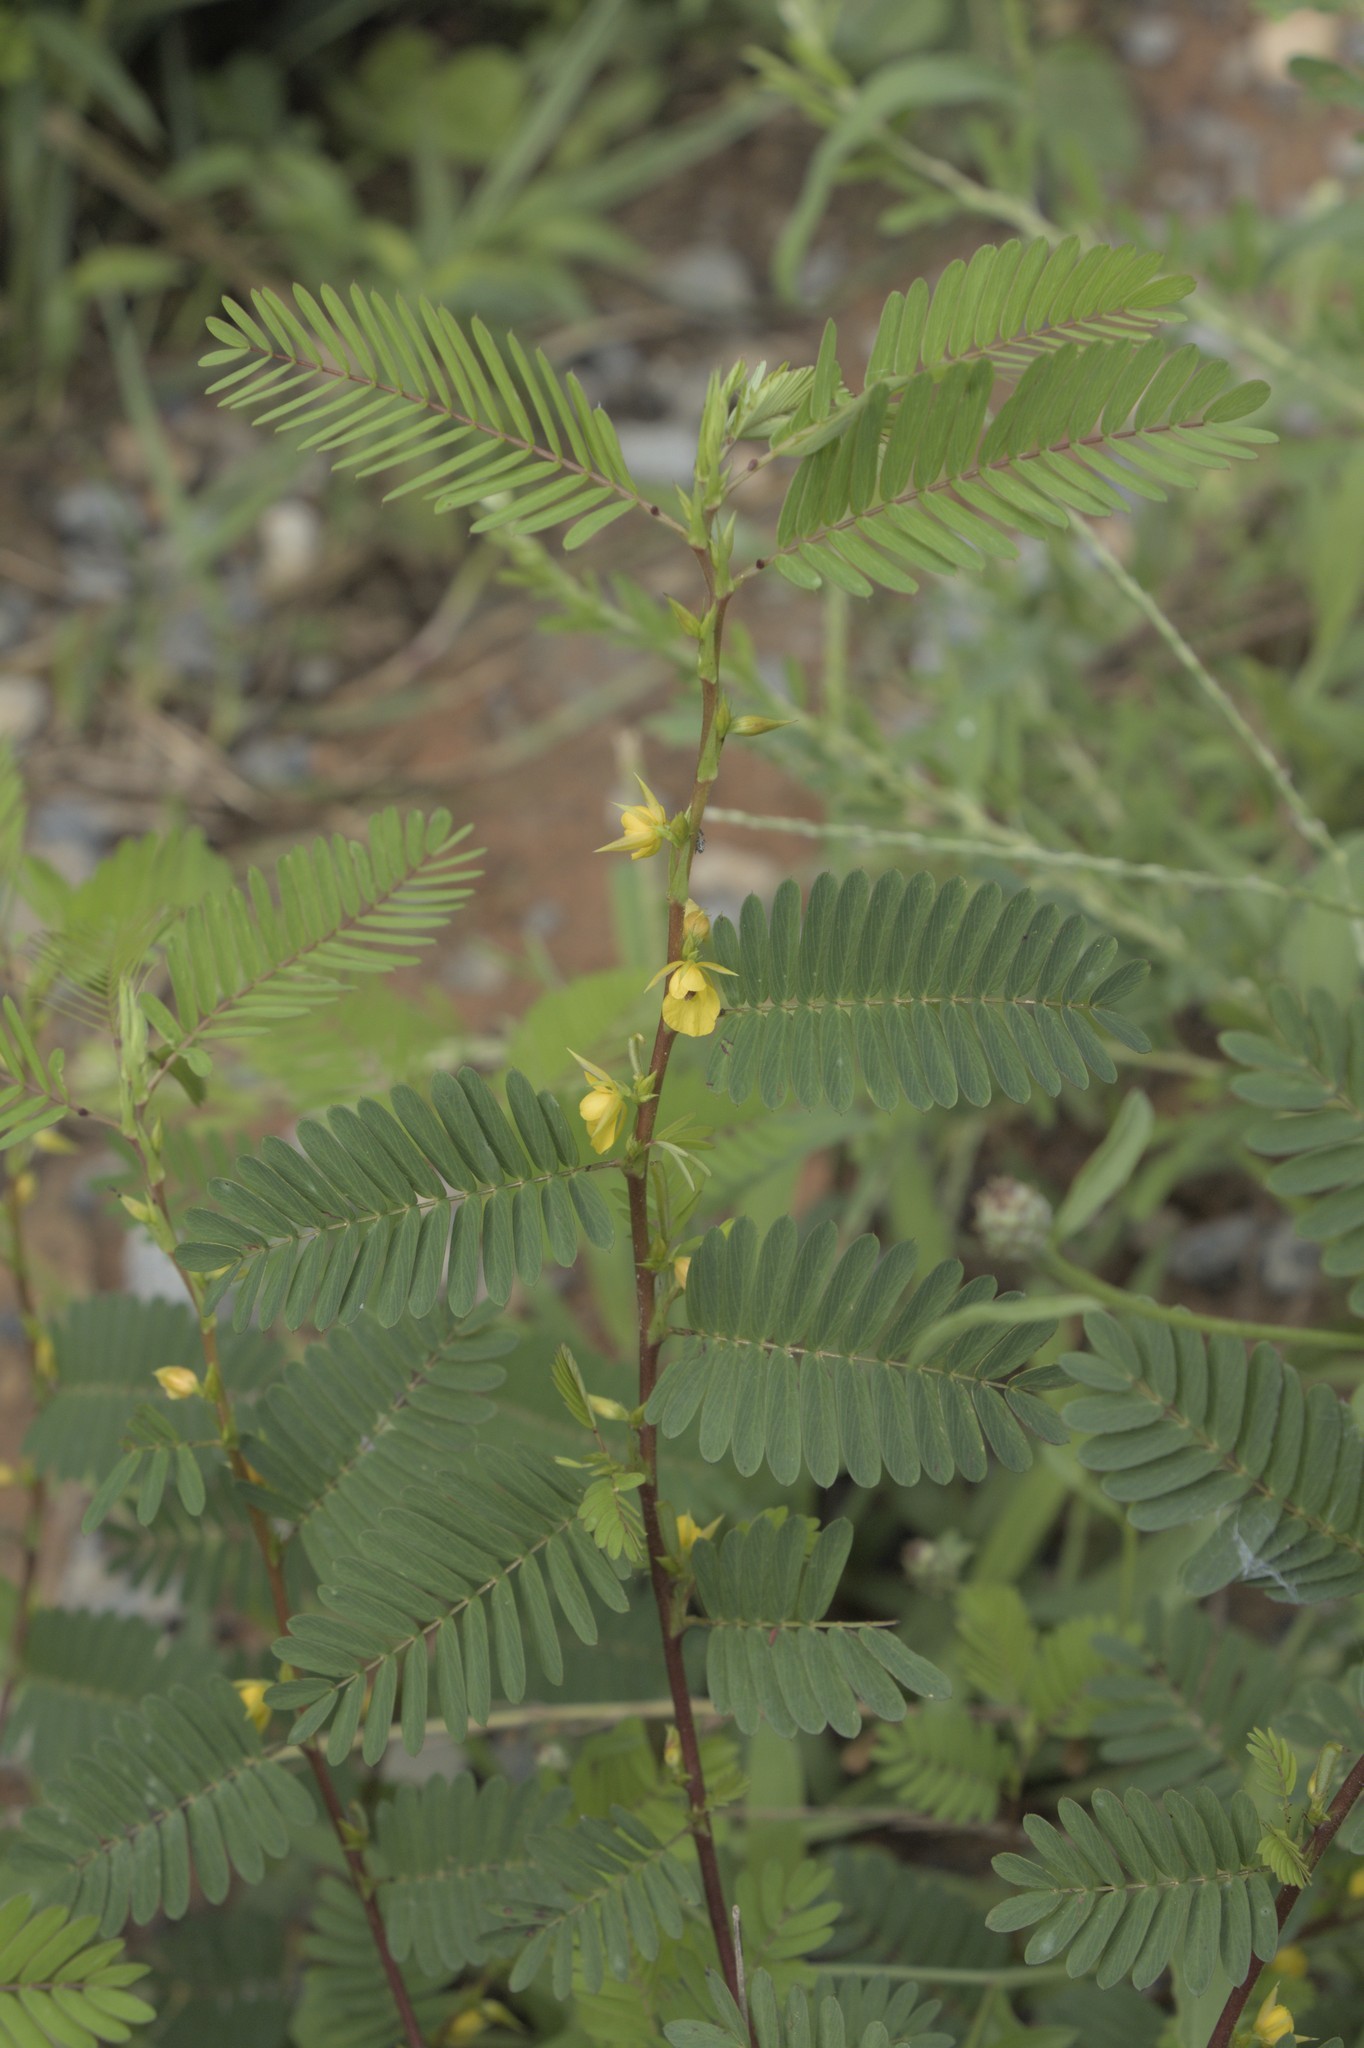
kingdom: Plantae
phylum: Tracheophyta
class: Magnoliopsida
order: Fabales
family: Fabaceae
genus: Chamaecrista
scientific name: Chamaecrista nictitans
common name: Sensitive cassia
